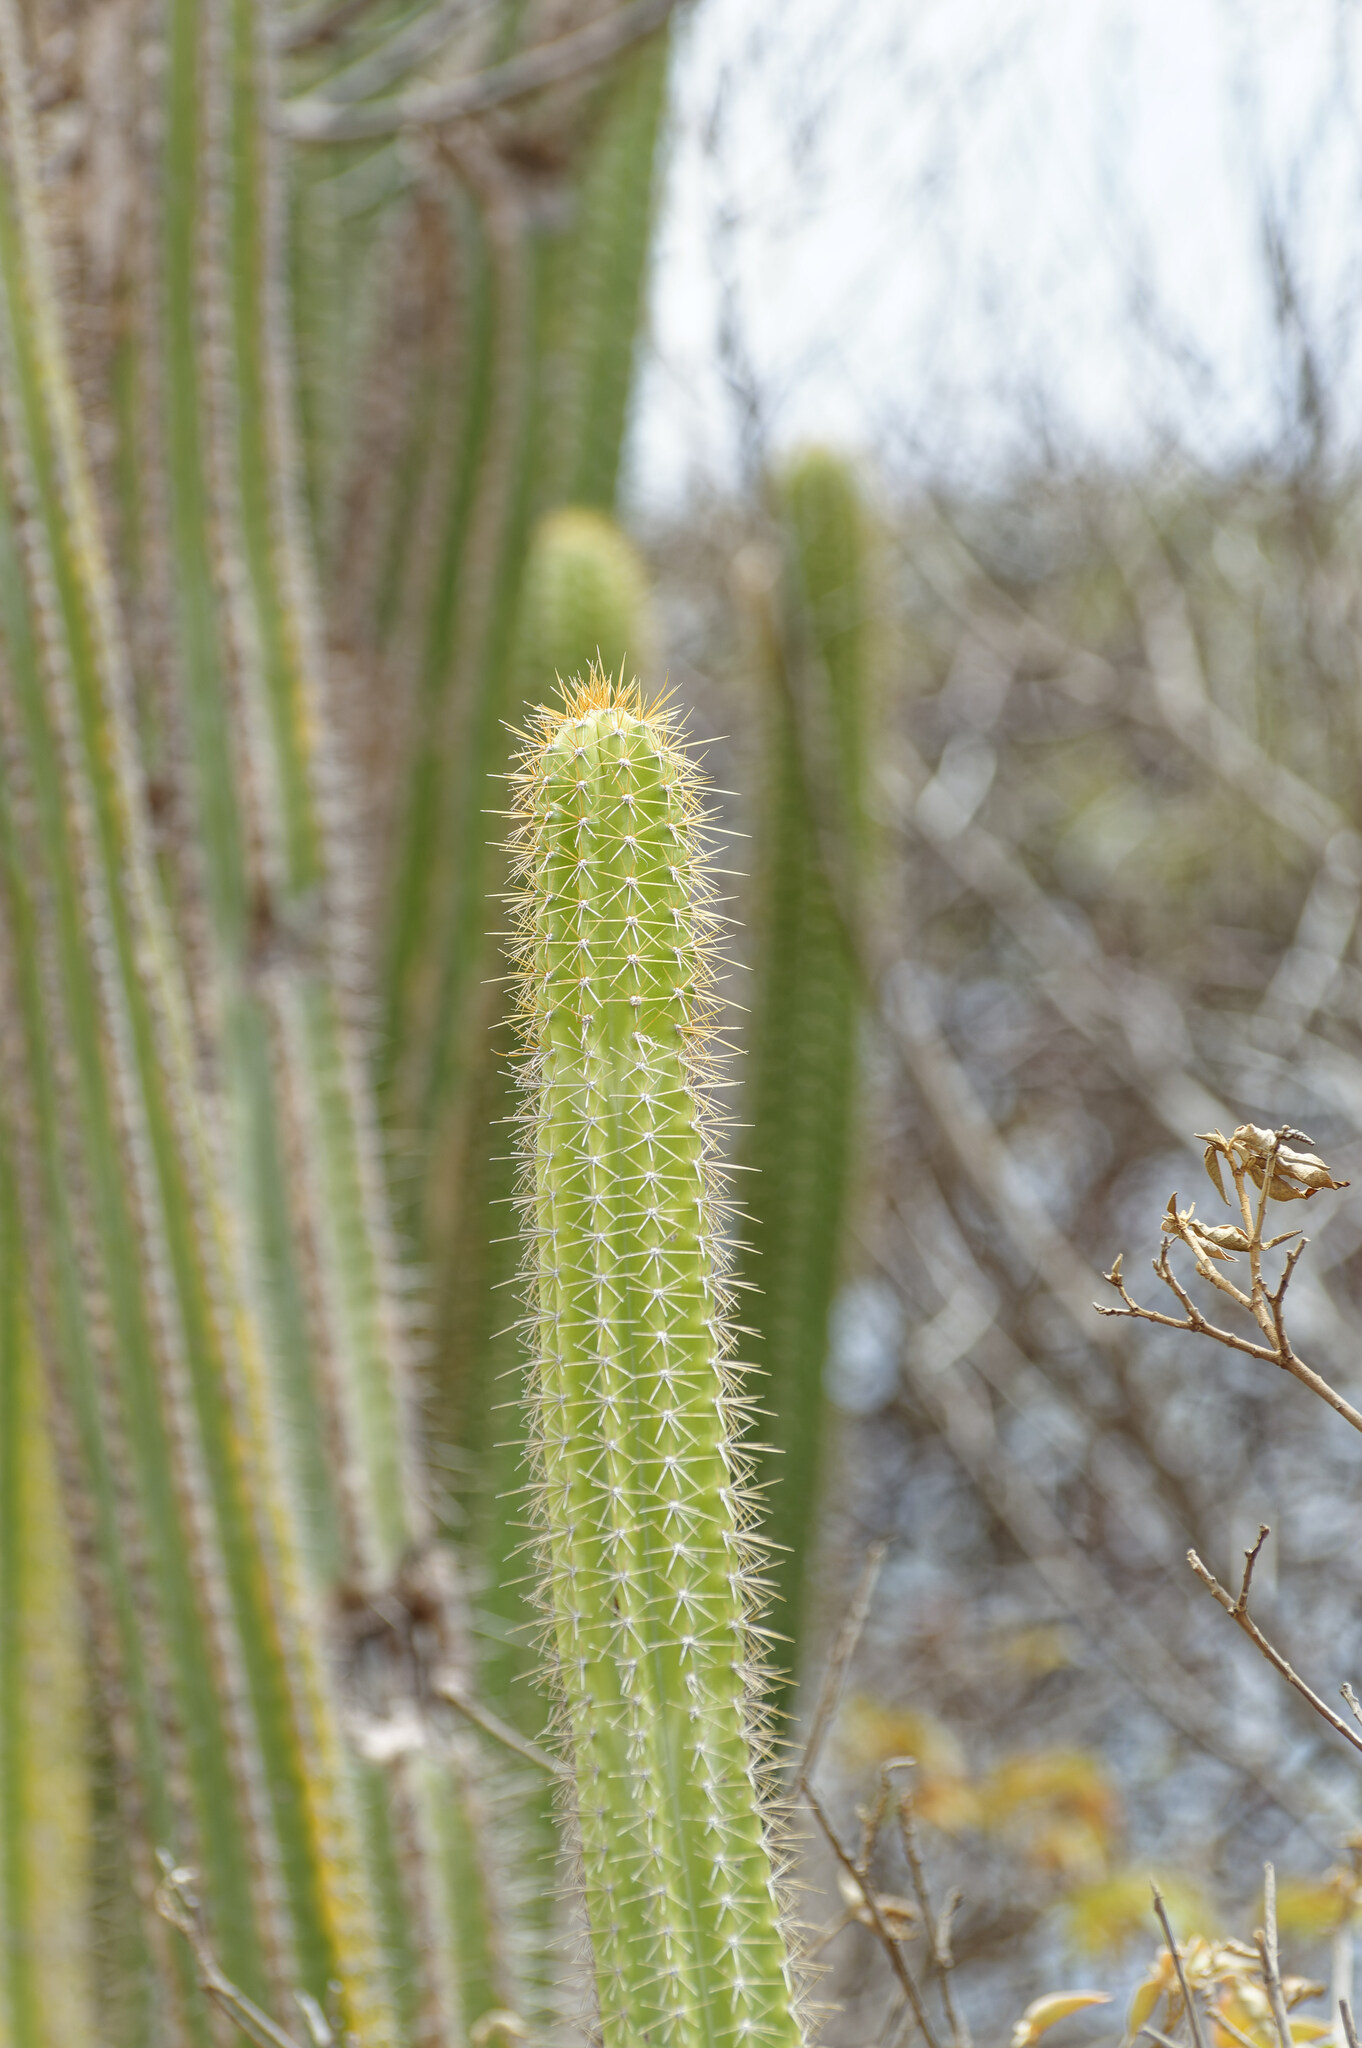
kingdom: Plantae
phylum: Tracheophyta
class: Magnoliopsida
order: Caryophyllales
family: Cactaceae
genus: Pilosocereus
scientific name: Pilosocereus curtisii
